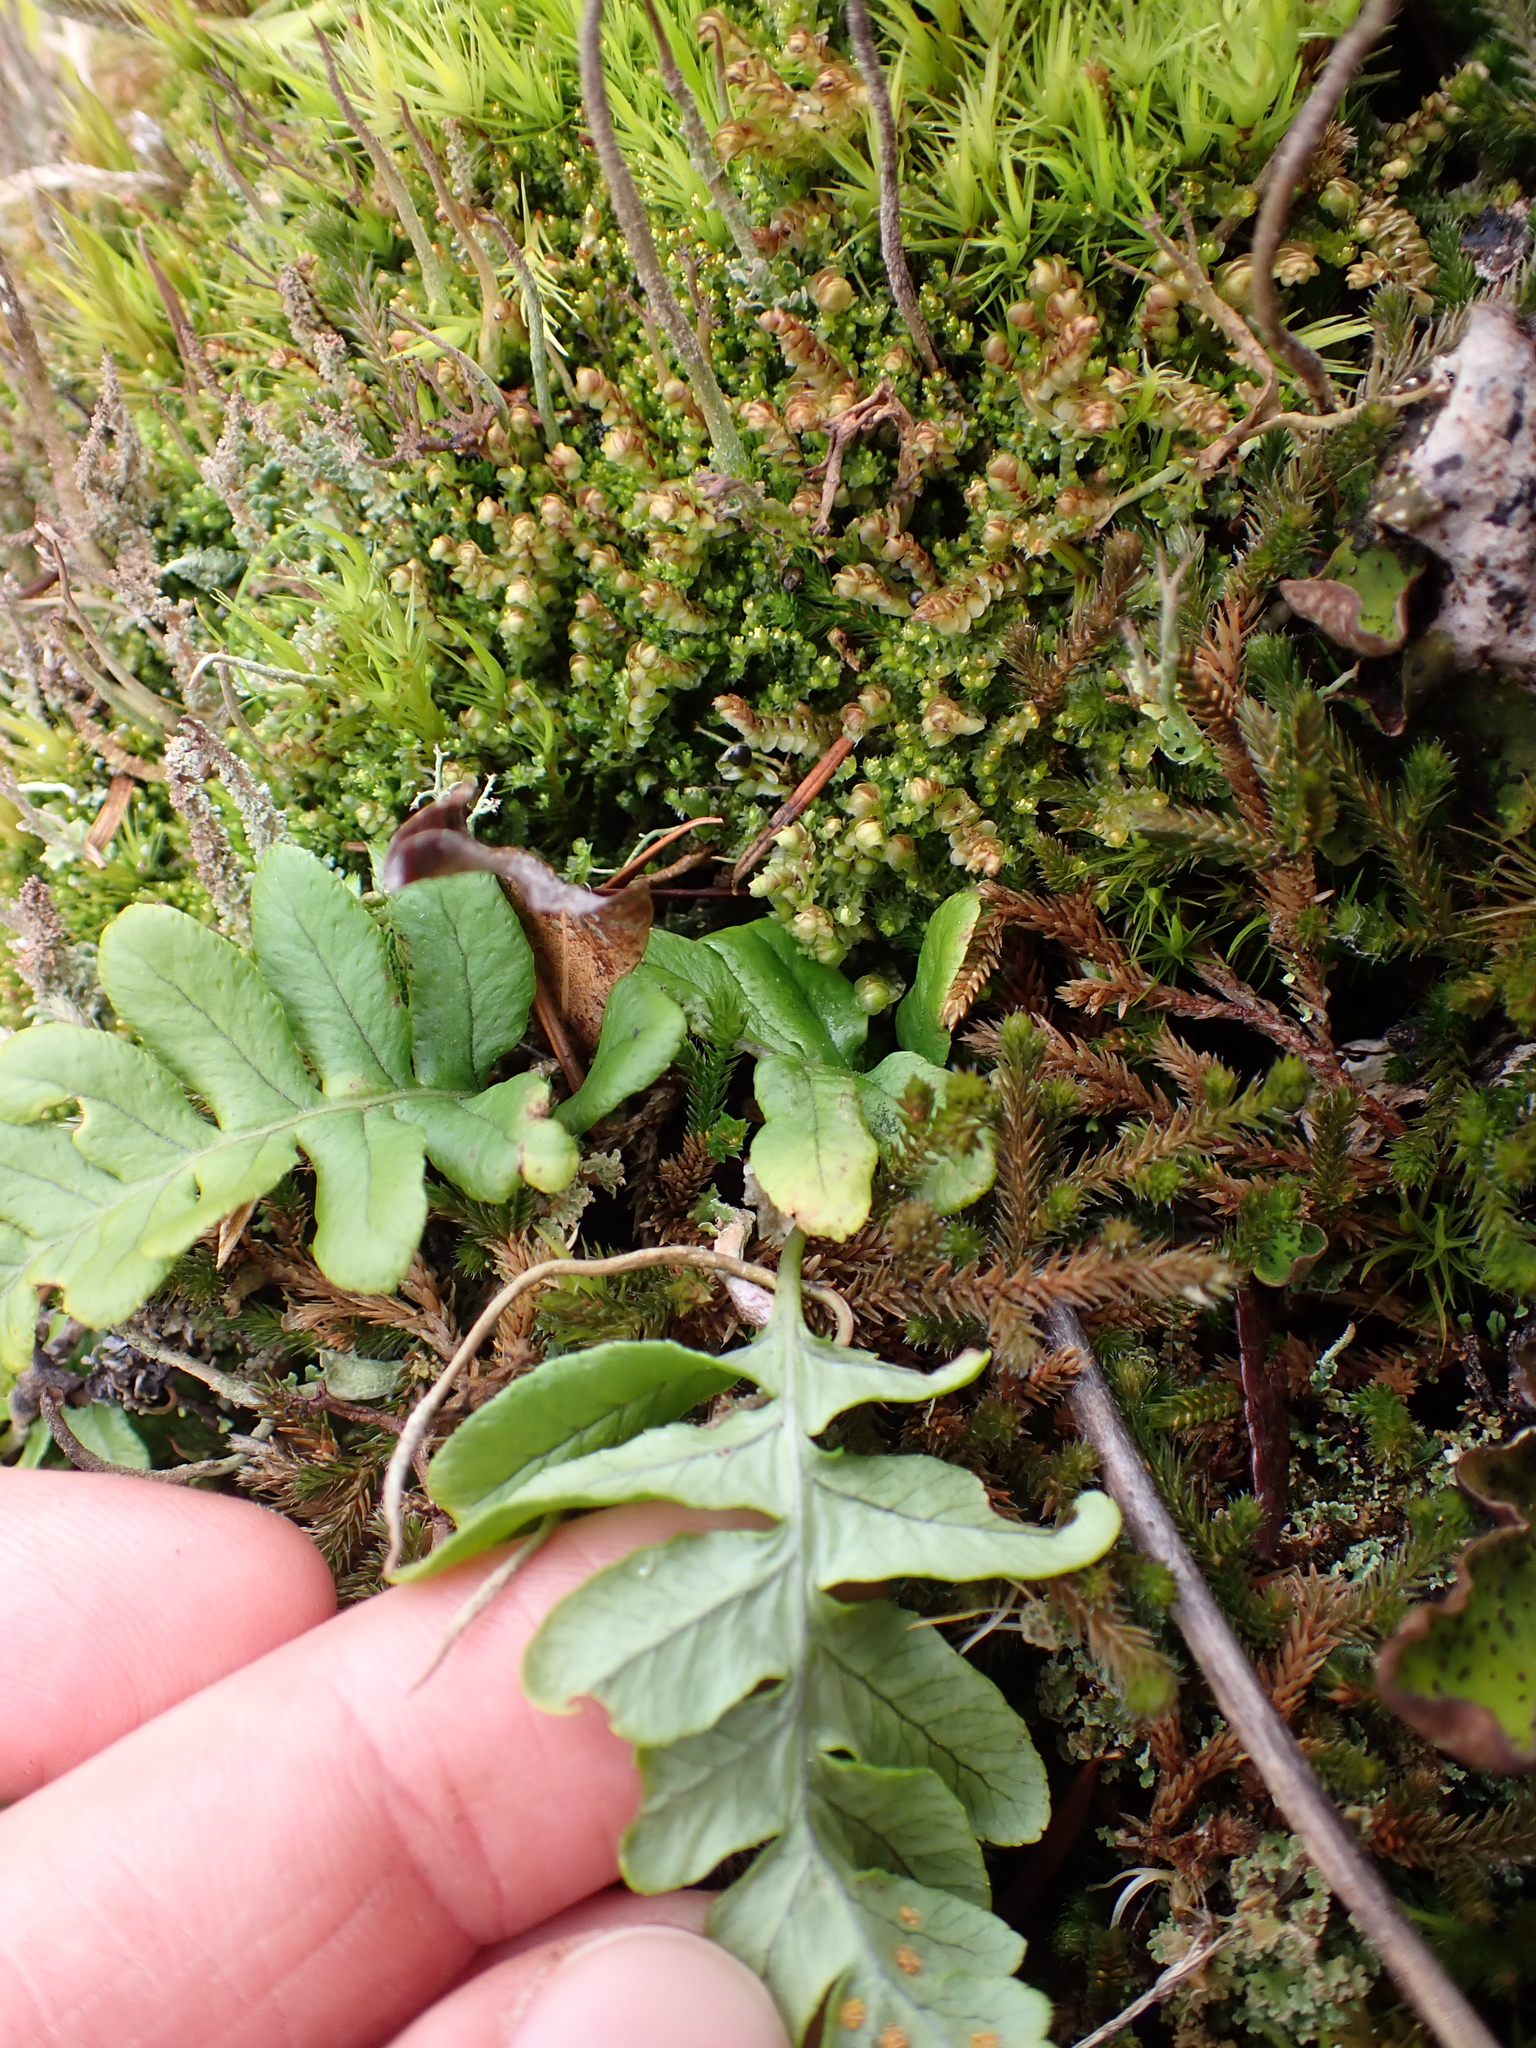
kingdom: Plantae
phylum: Tracheophyta
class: Polypodiopsida
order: Polypodiales
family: Polypodiaceae
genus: Polypodium
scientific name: Polypodium glycyrrhiza
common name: Licorice fern
